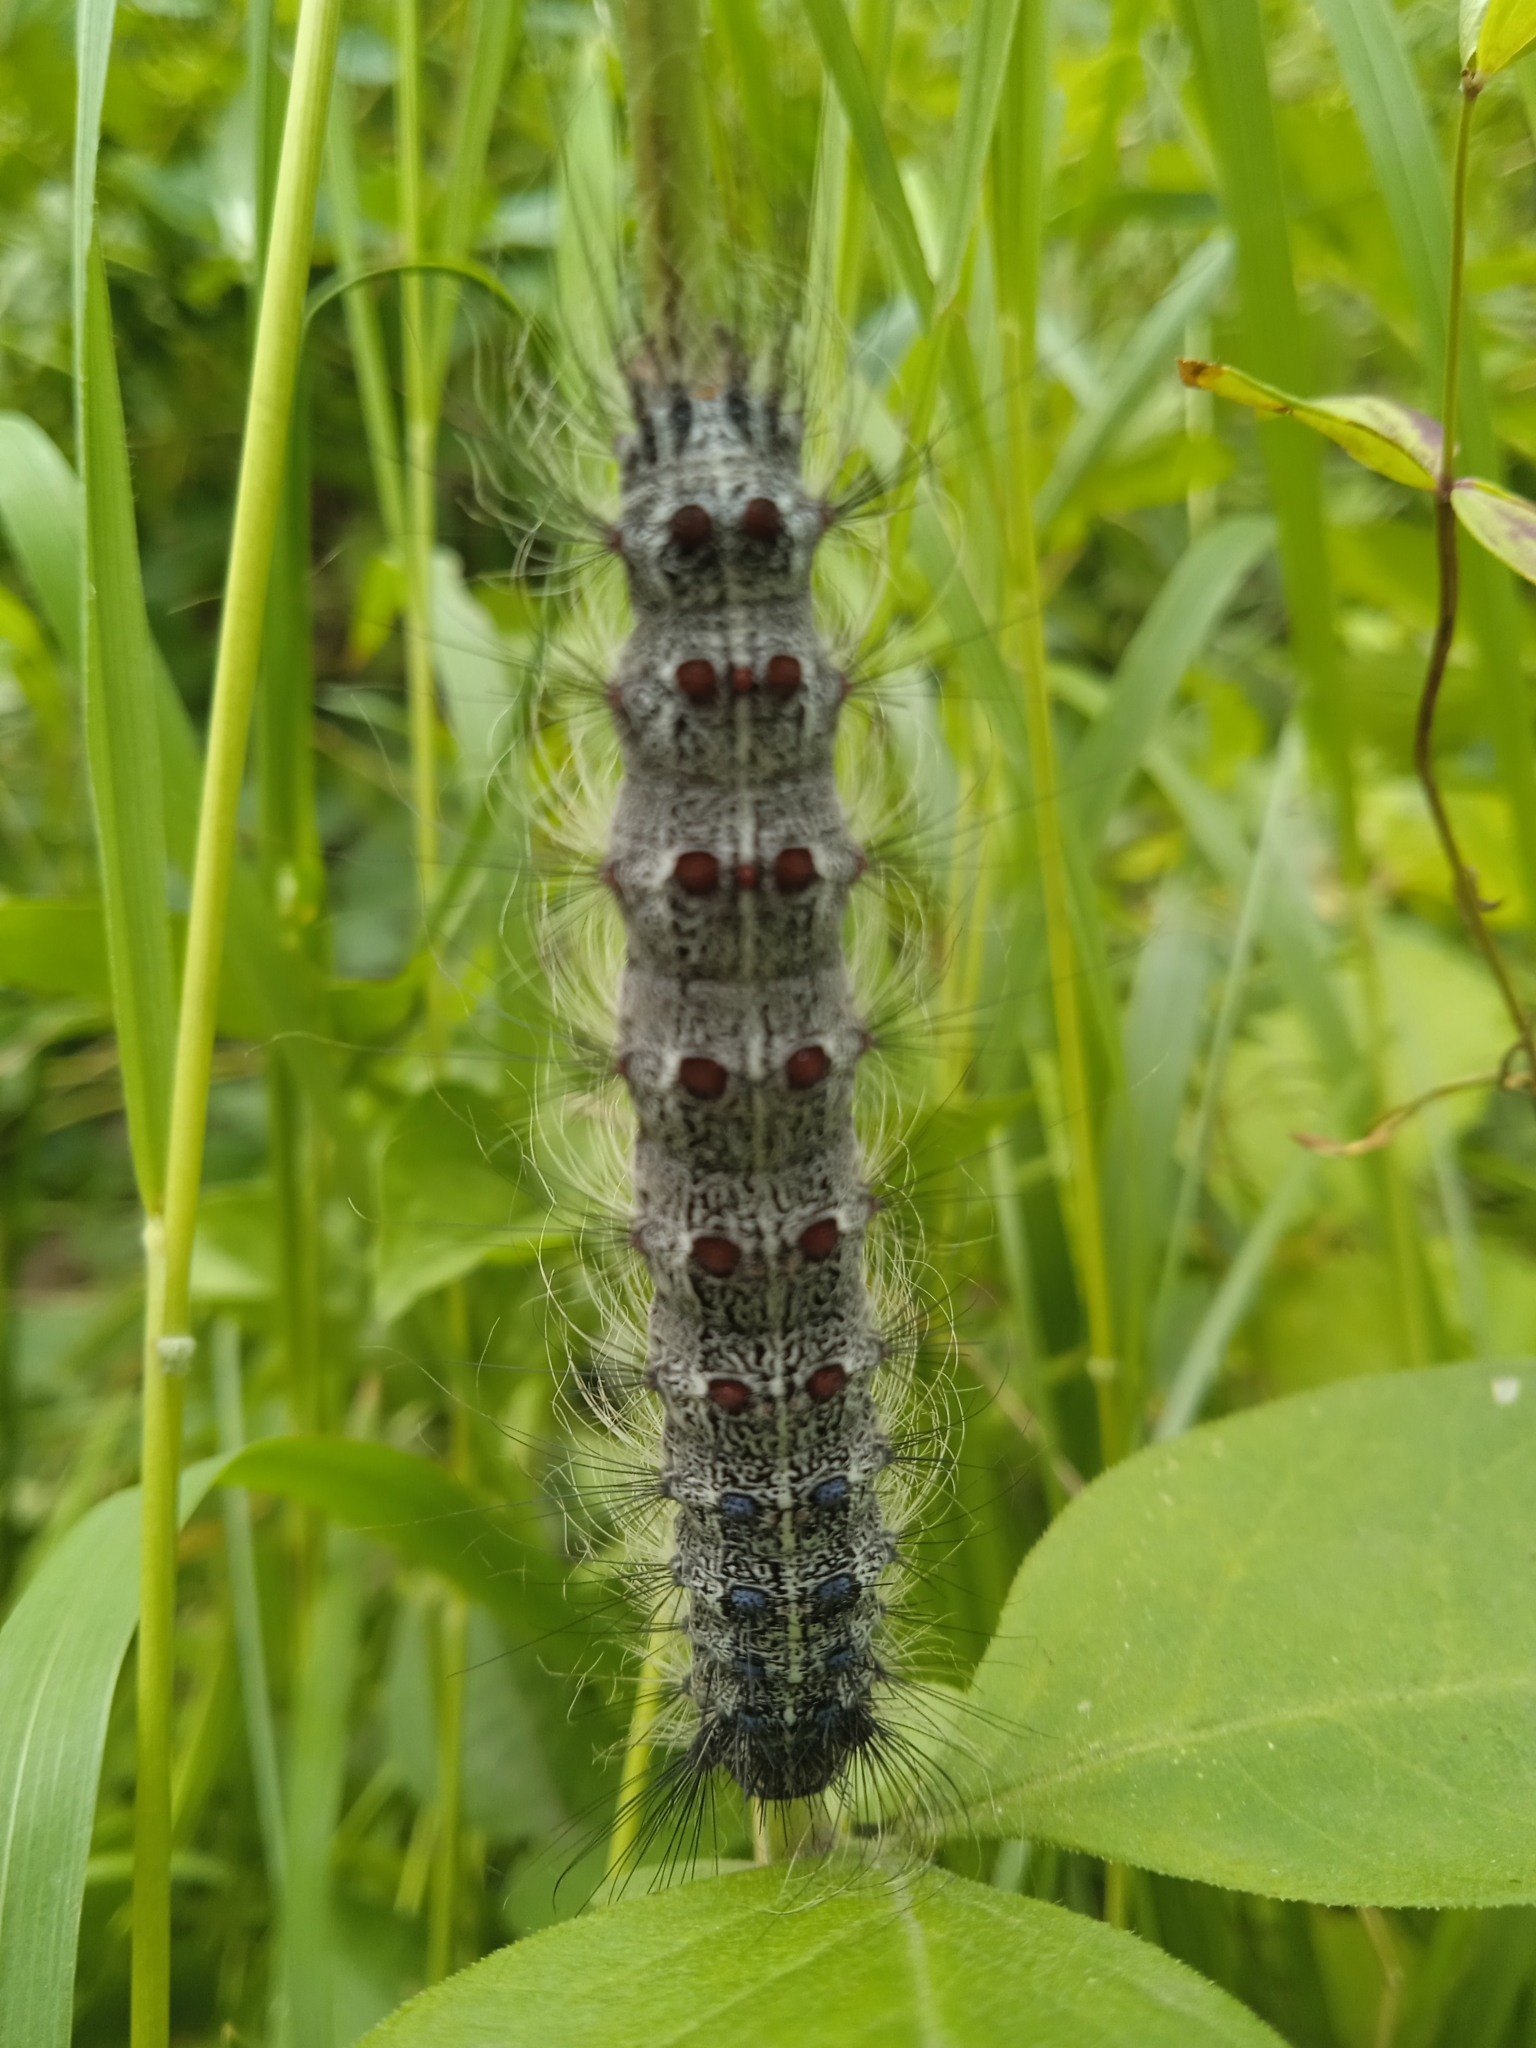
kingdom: Animalia
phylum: Arthropoda
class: Insecta
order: Lepidoptera
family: Erebidae
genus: Lymantria
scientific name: Lymantria dispar
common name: Gypsy moth
